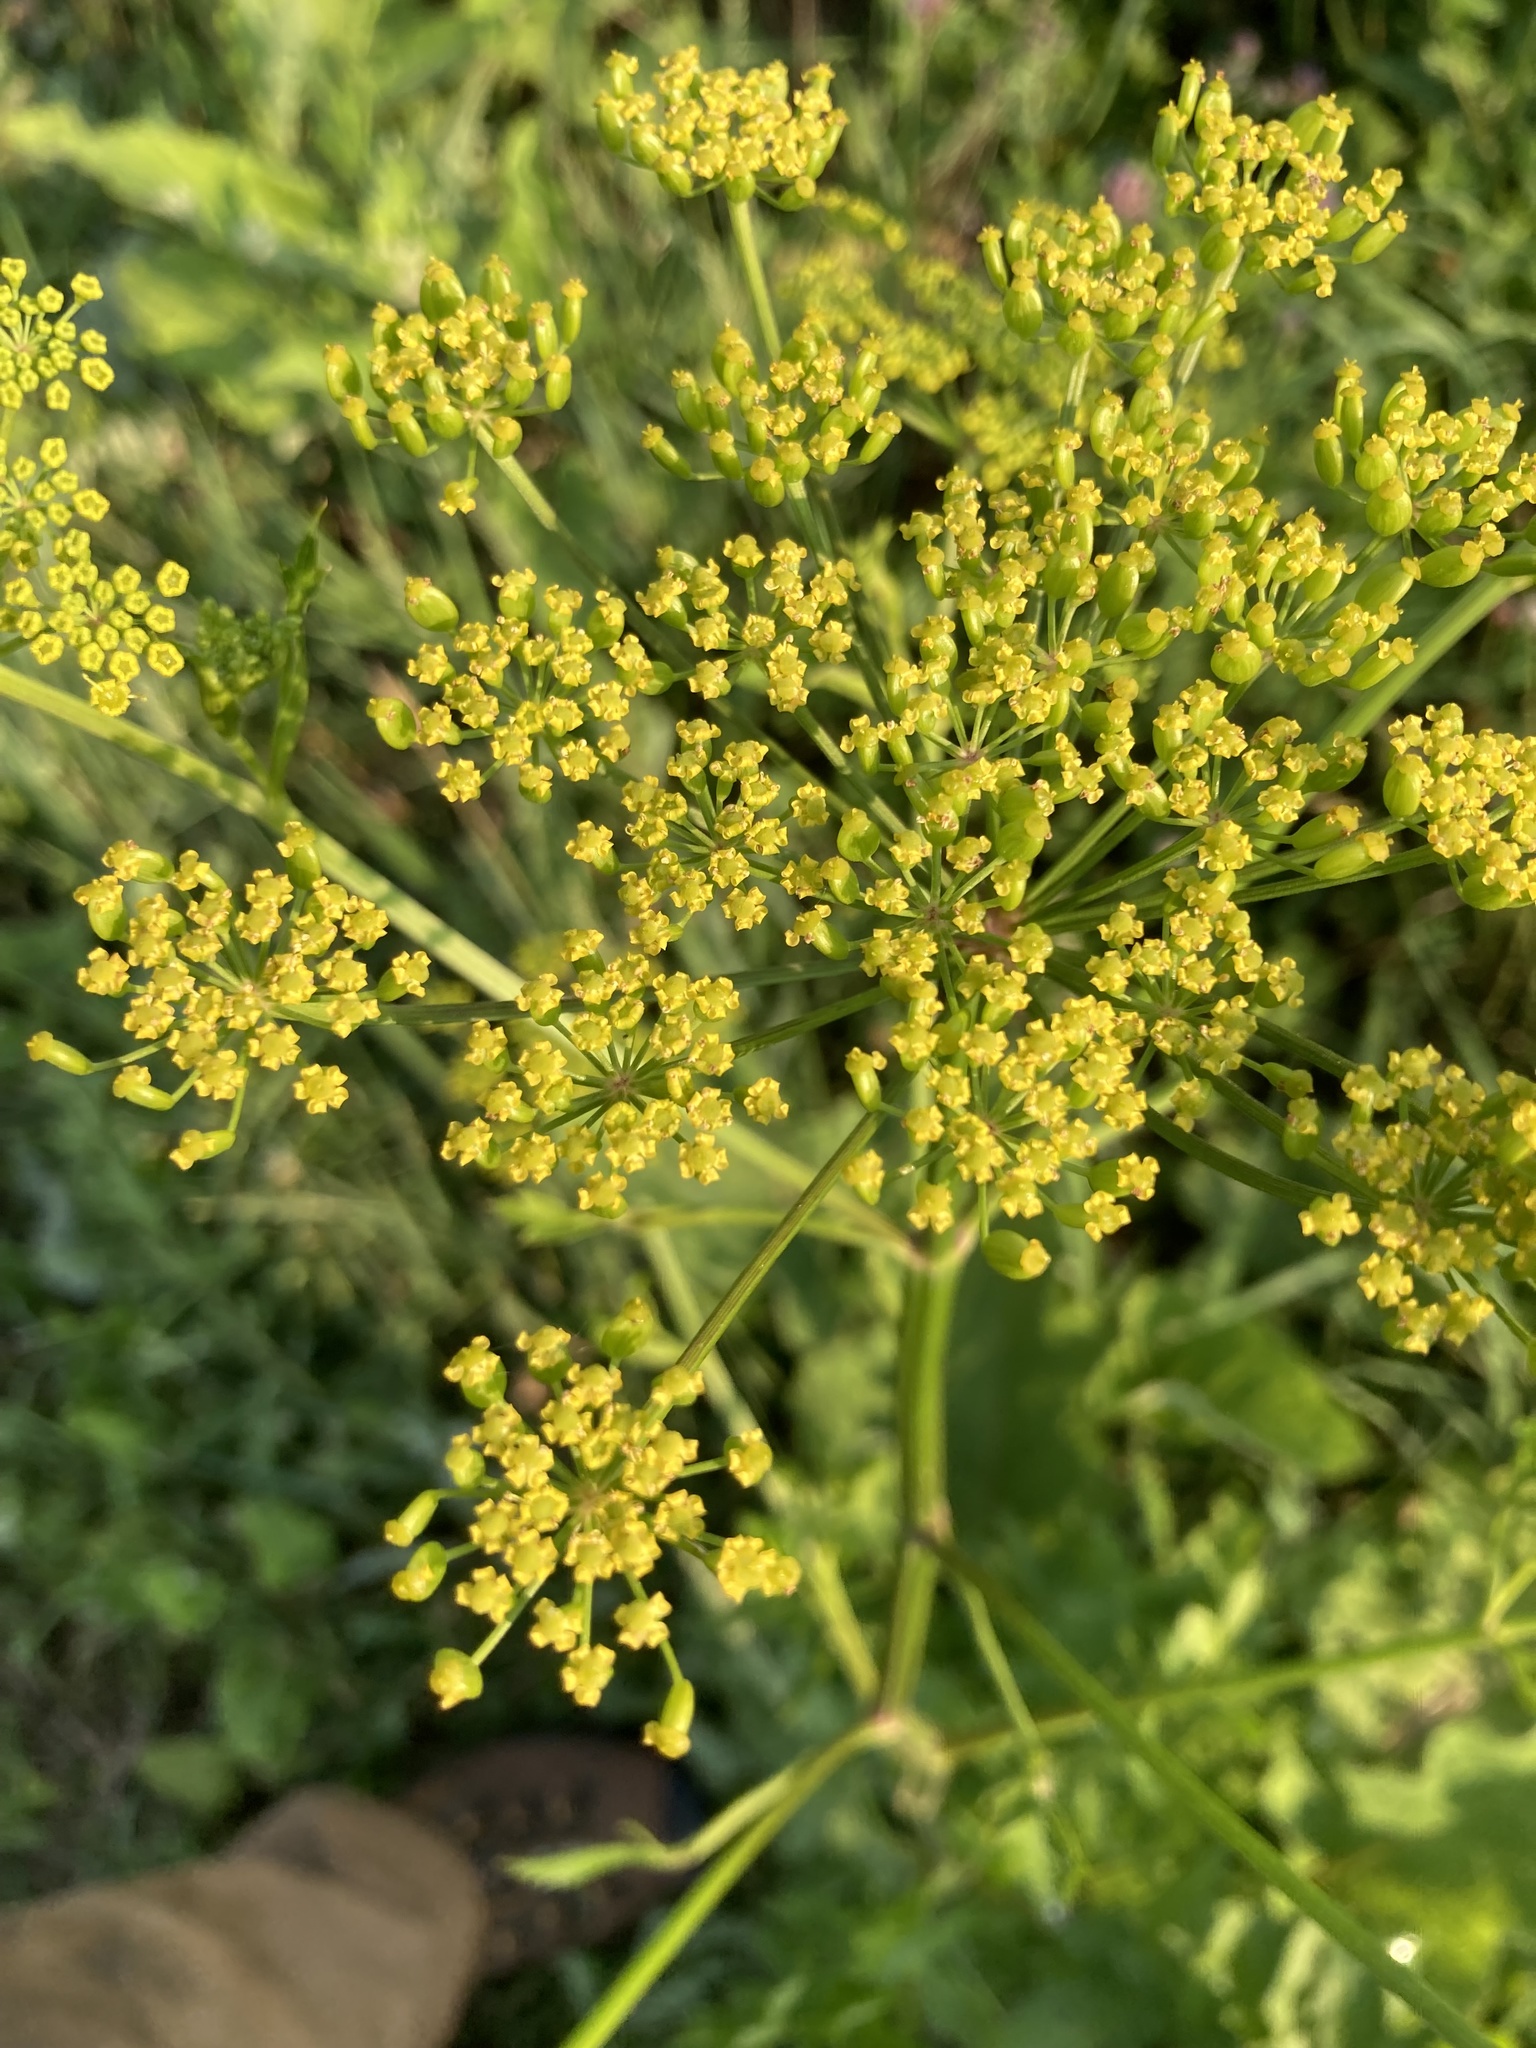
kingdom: Plantae
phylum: Tracheophyta
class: Magnoliopsida
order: Apiales
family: Apiaceae
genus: Pastinaca
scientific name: Pastinaca sativa
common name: Wild parsnip
